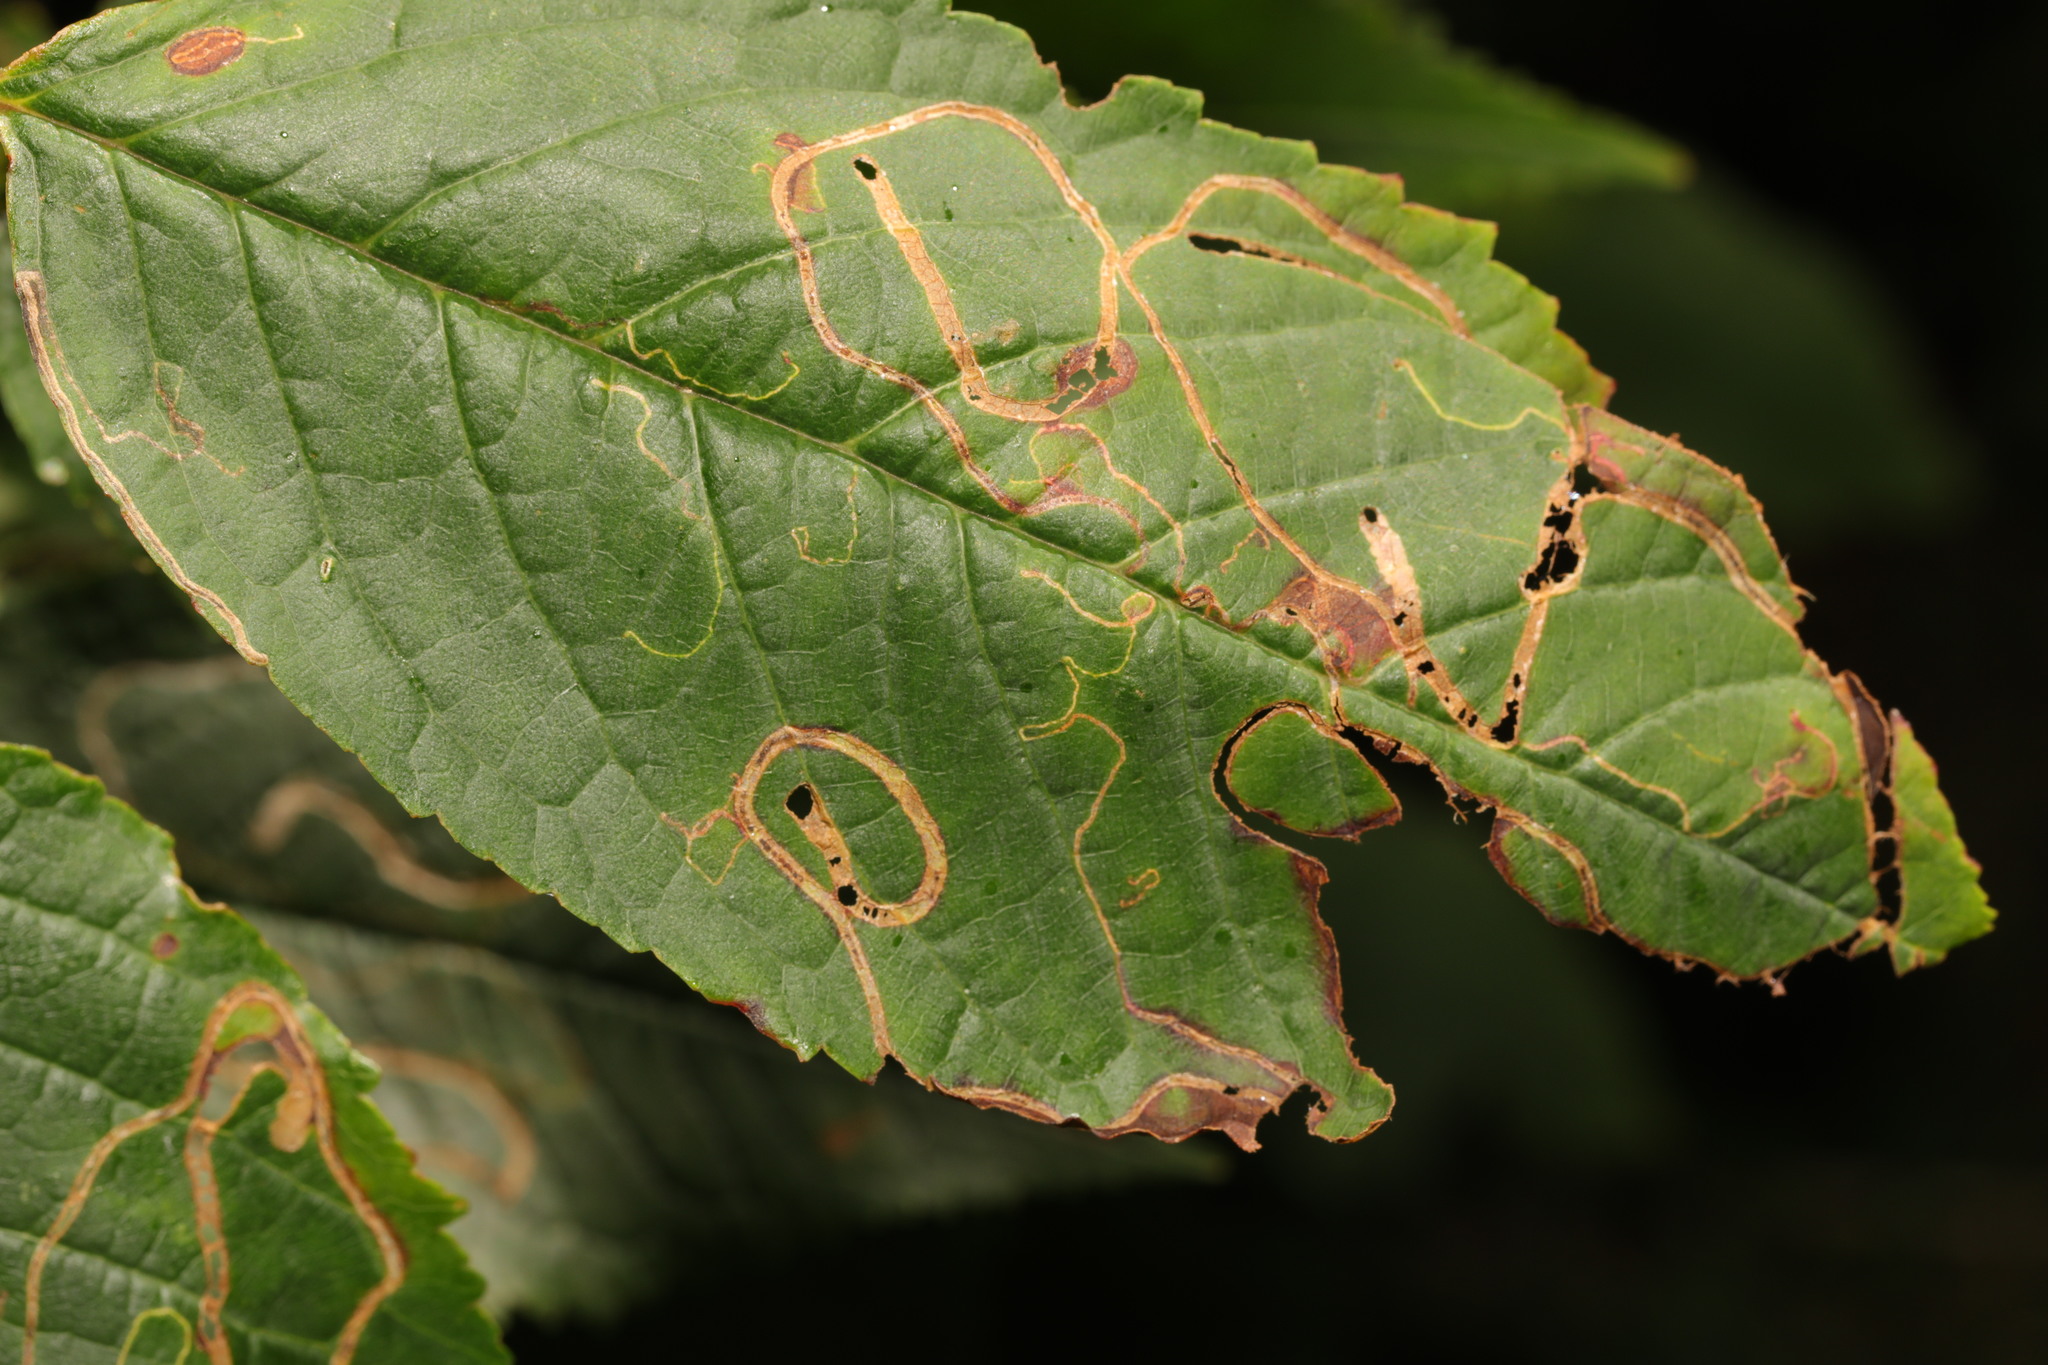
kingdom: Animalia
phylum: Arthropoda
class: Insecta
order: Lepidoptera
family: Lyonetiidae
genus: Lyonetia
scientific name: Lyonetia clerkella
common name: Apple leaf miner
